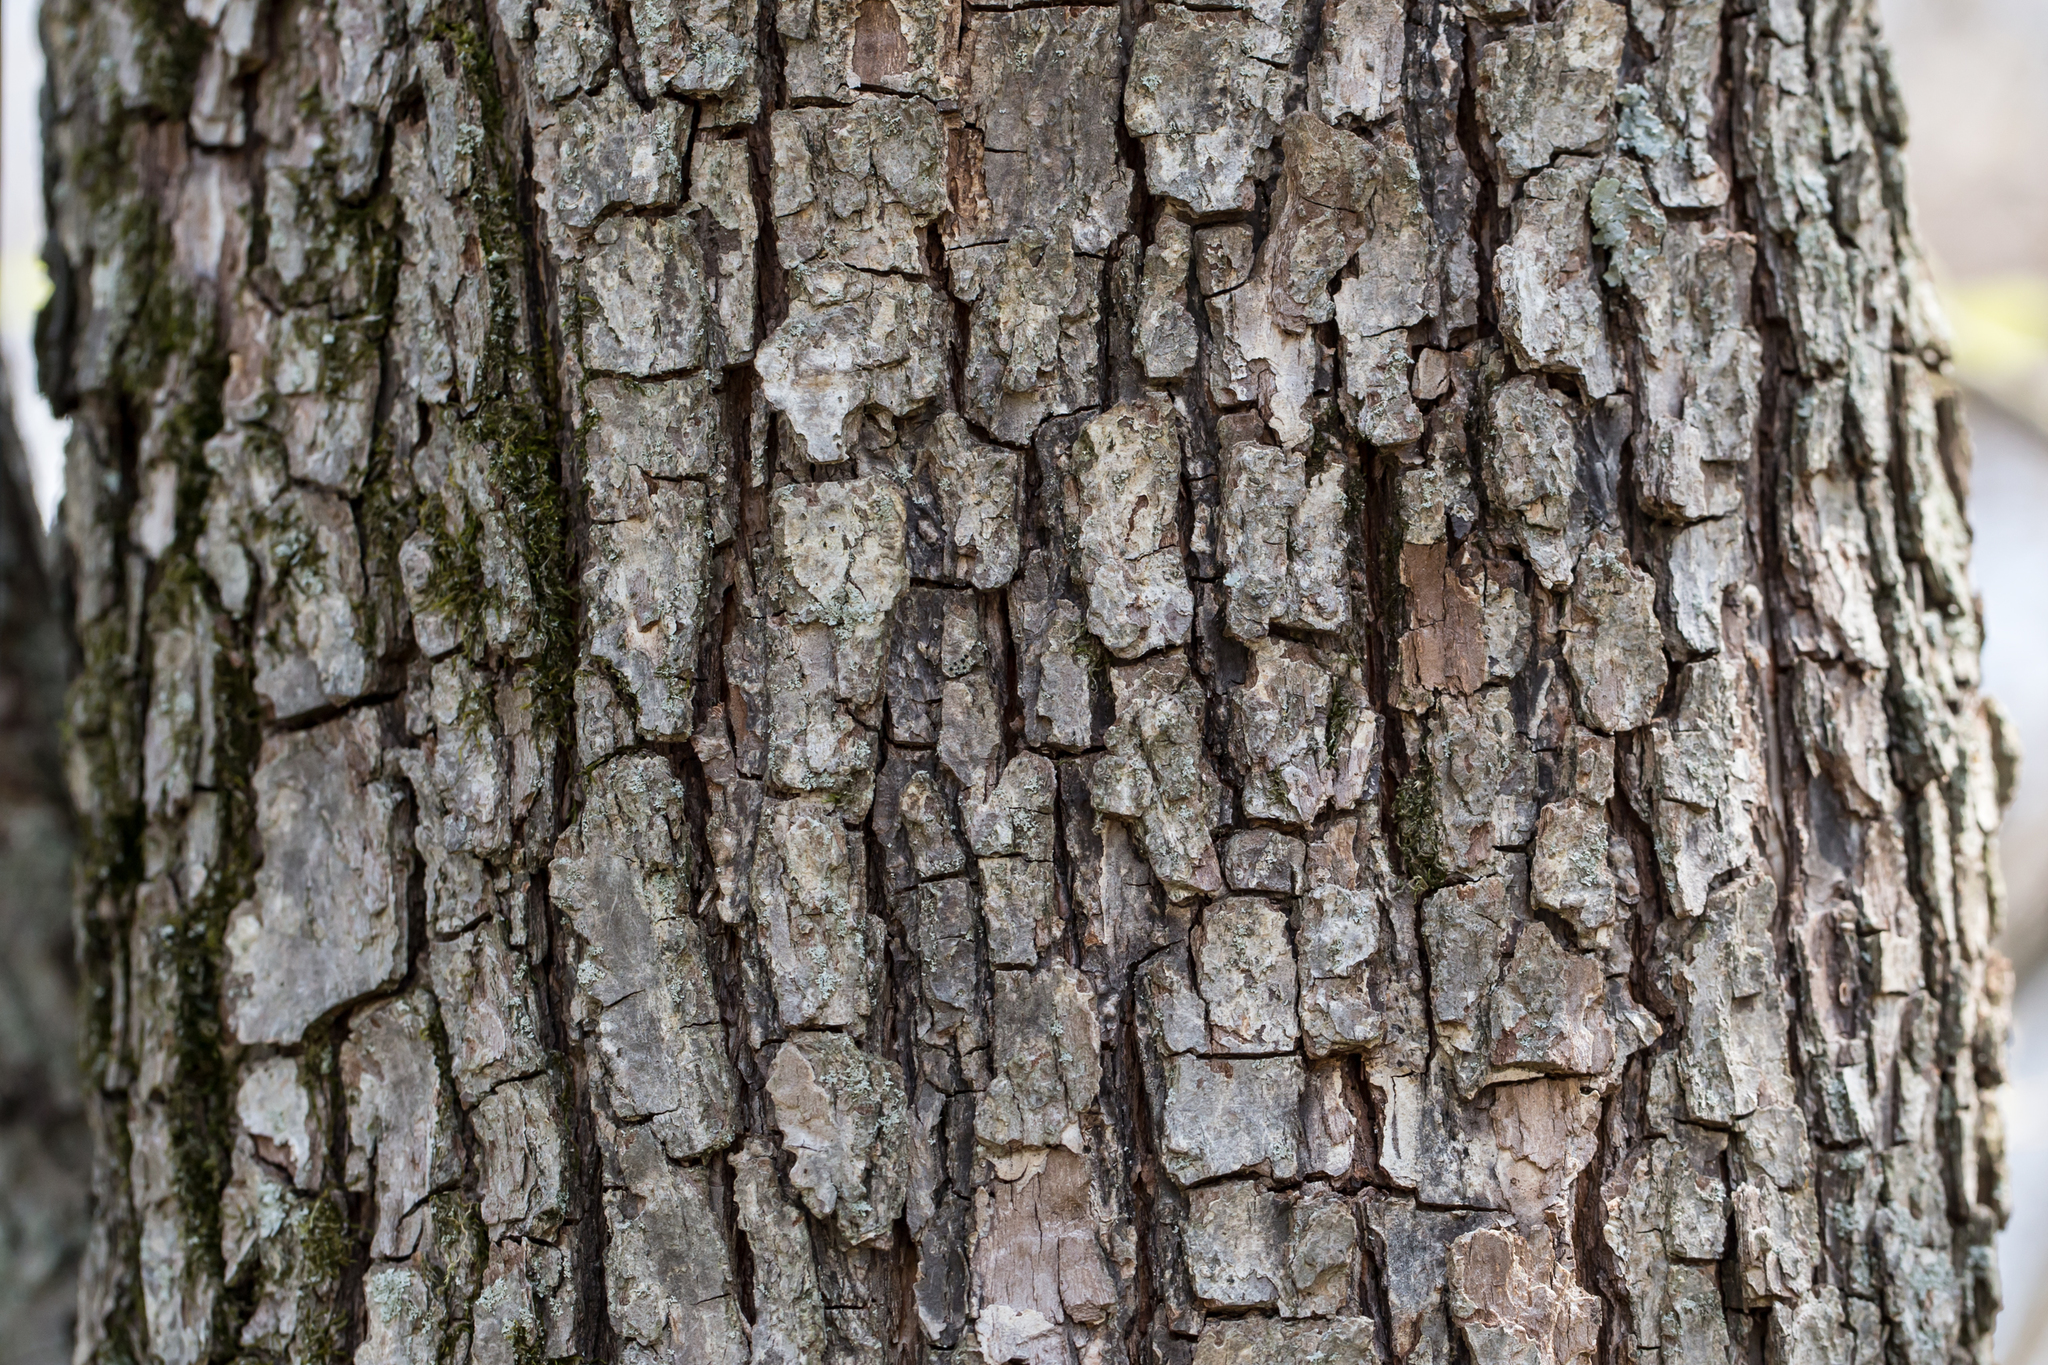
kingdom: Plantae
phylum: Tracheophyta
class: Magnoliopsida
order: Rosales
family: Rosaceae
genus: Pyrus
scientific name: Pyrus calleryana
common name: Callery pear
